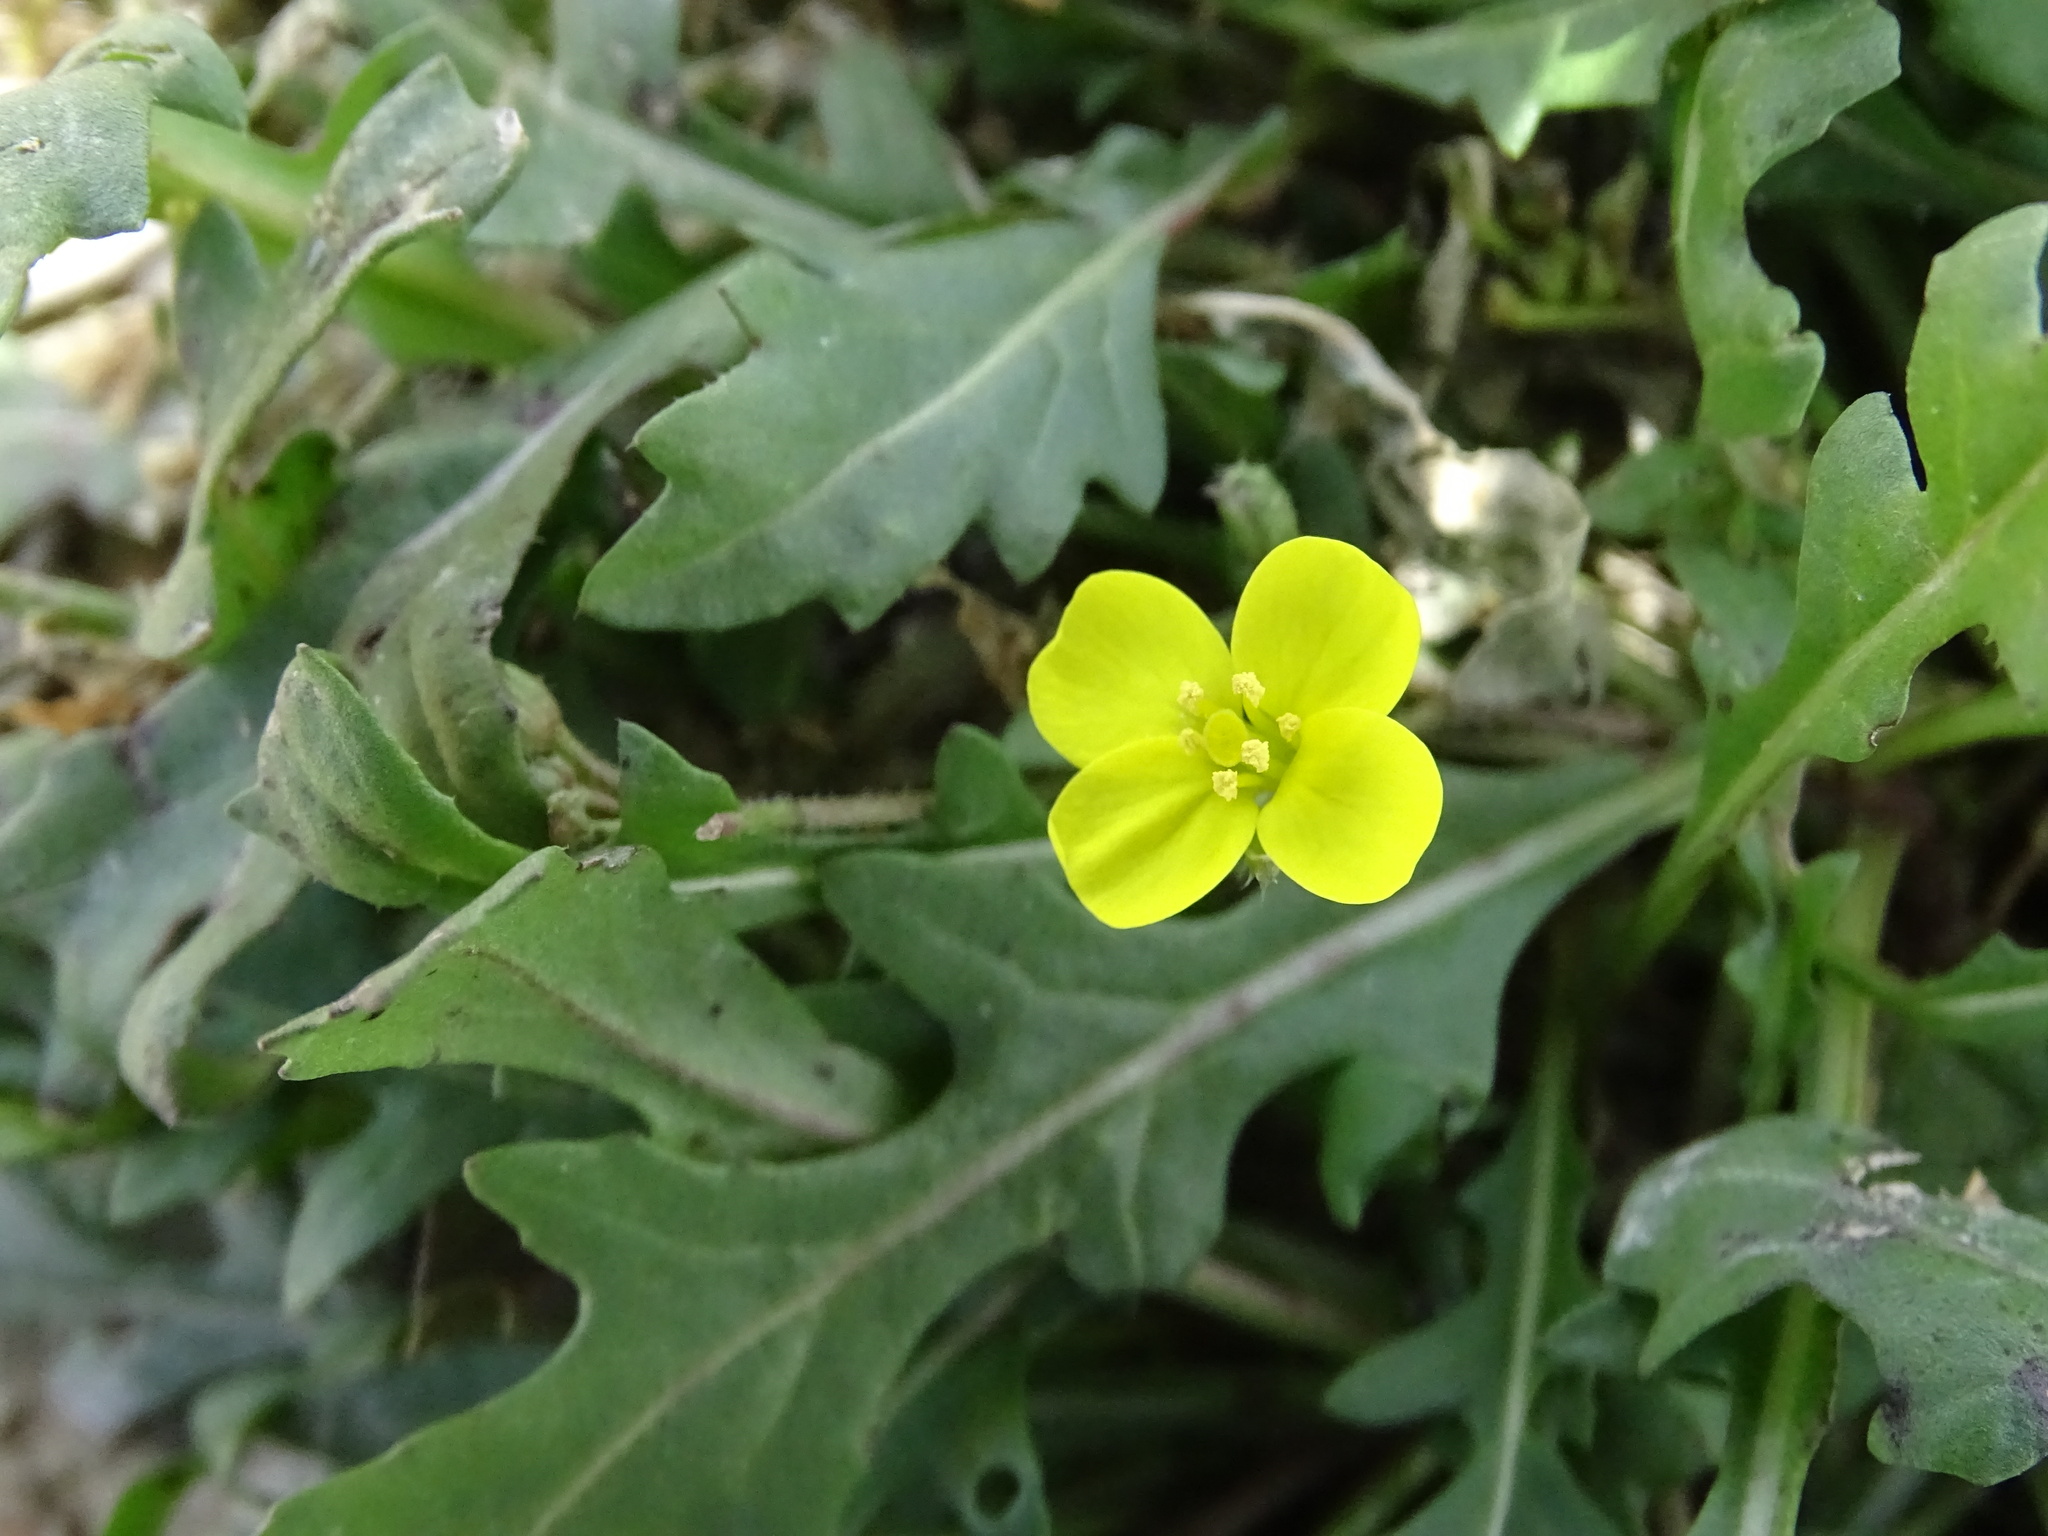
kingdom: Plantae
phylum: Tracheophyta
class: Magnoliopsida
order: Brassicales
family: Brassicaceae
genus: Diplotaxis
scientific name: Diplotaxis muralis
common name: Annual wall-rocket
